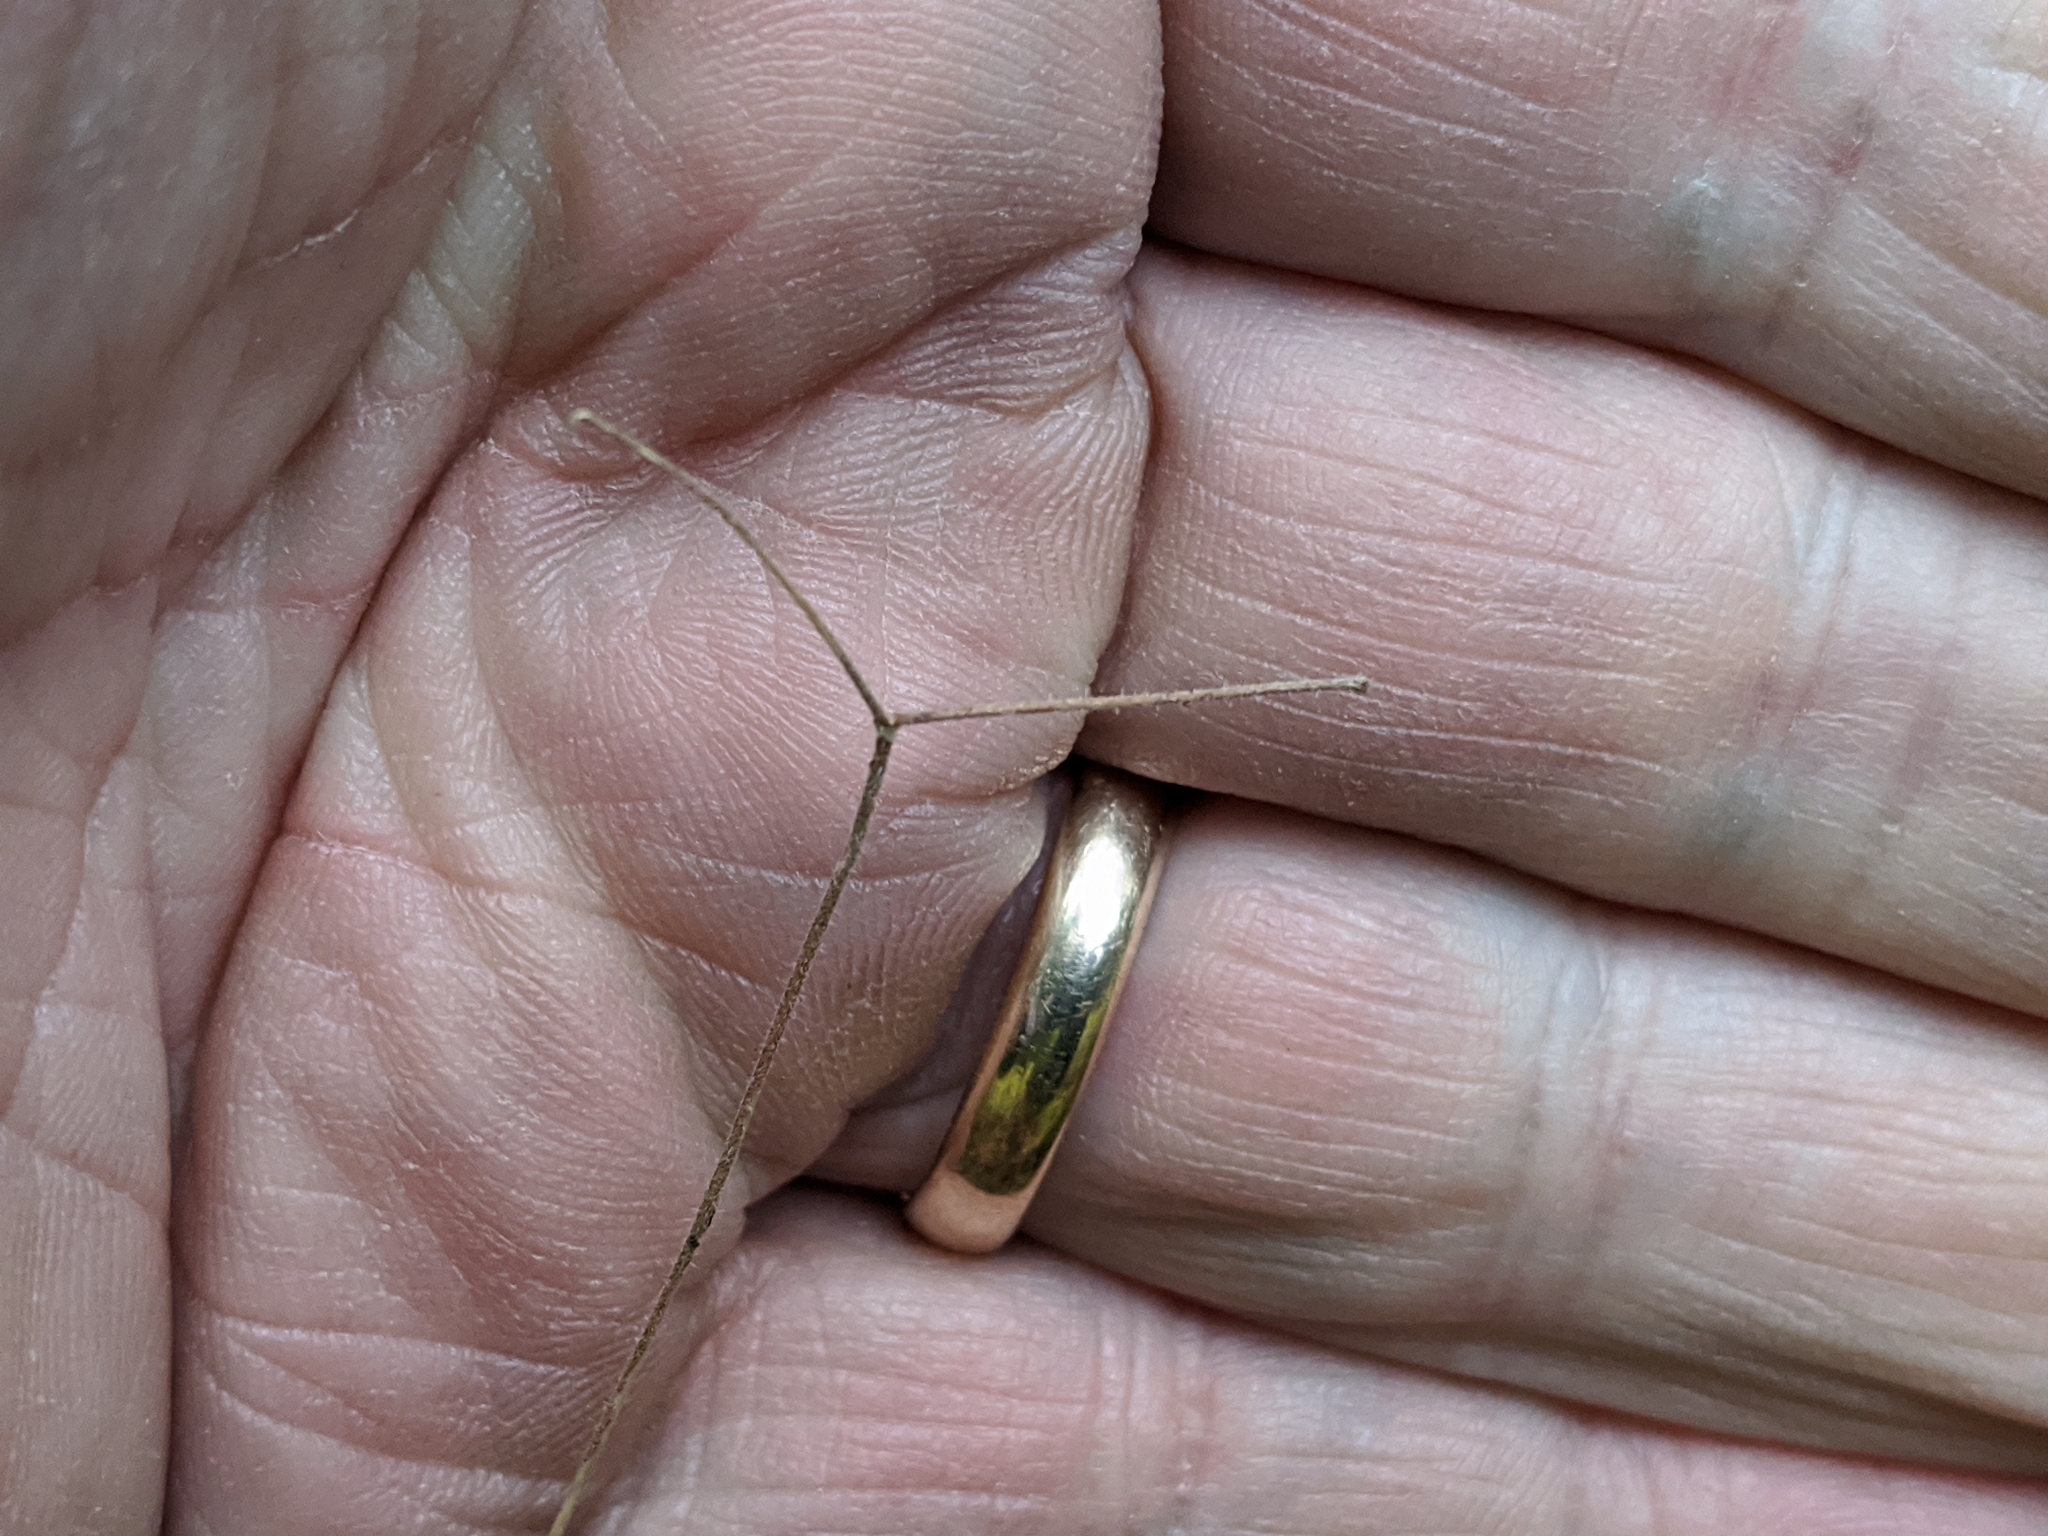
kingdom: Plantae
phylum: Tracheophyta
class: Magnoliopsida
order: Dipsacales
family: Caprifoliaceae
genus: Linnaea
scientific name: Linnaea borealis
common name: Twinflower
